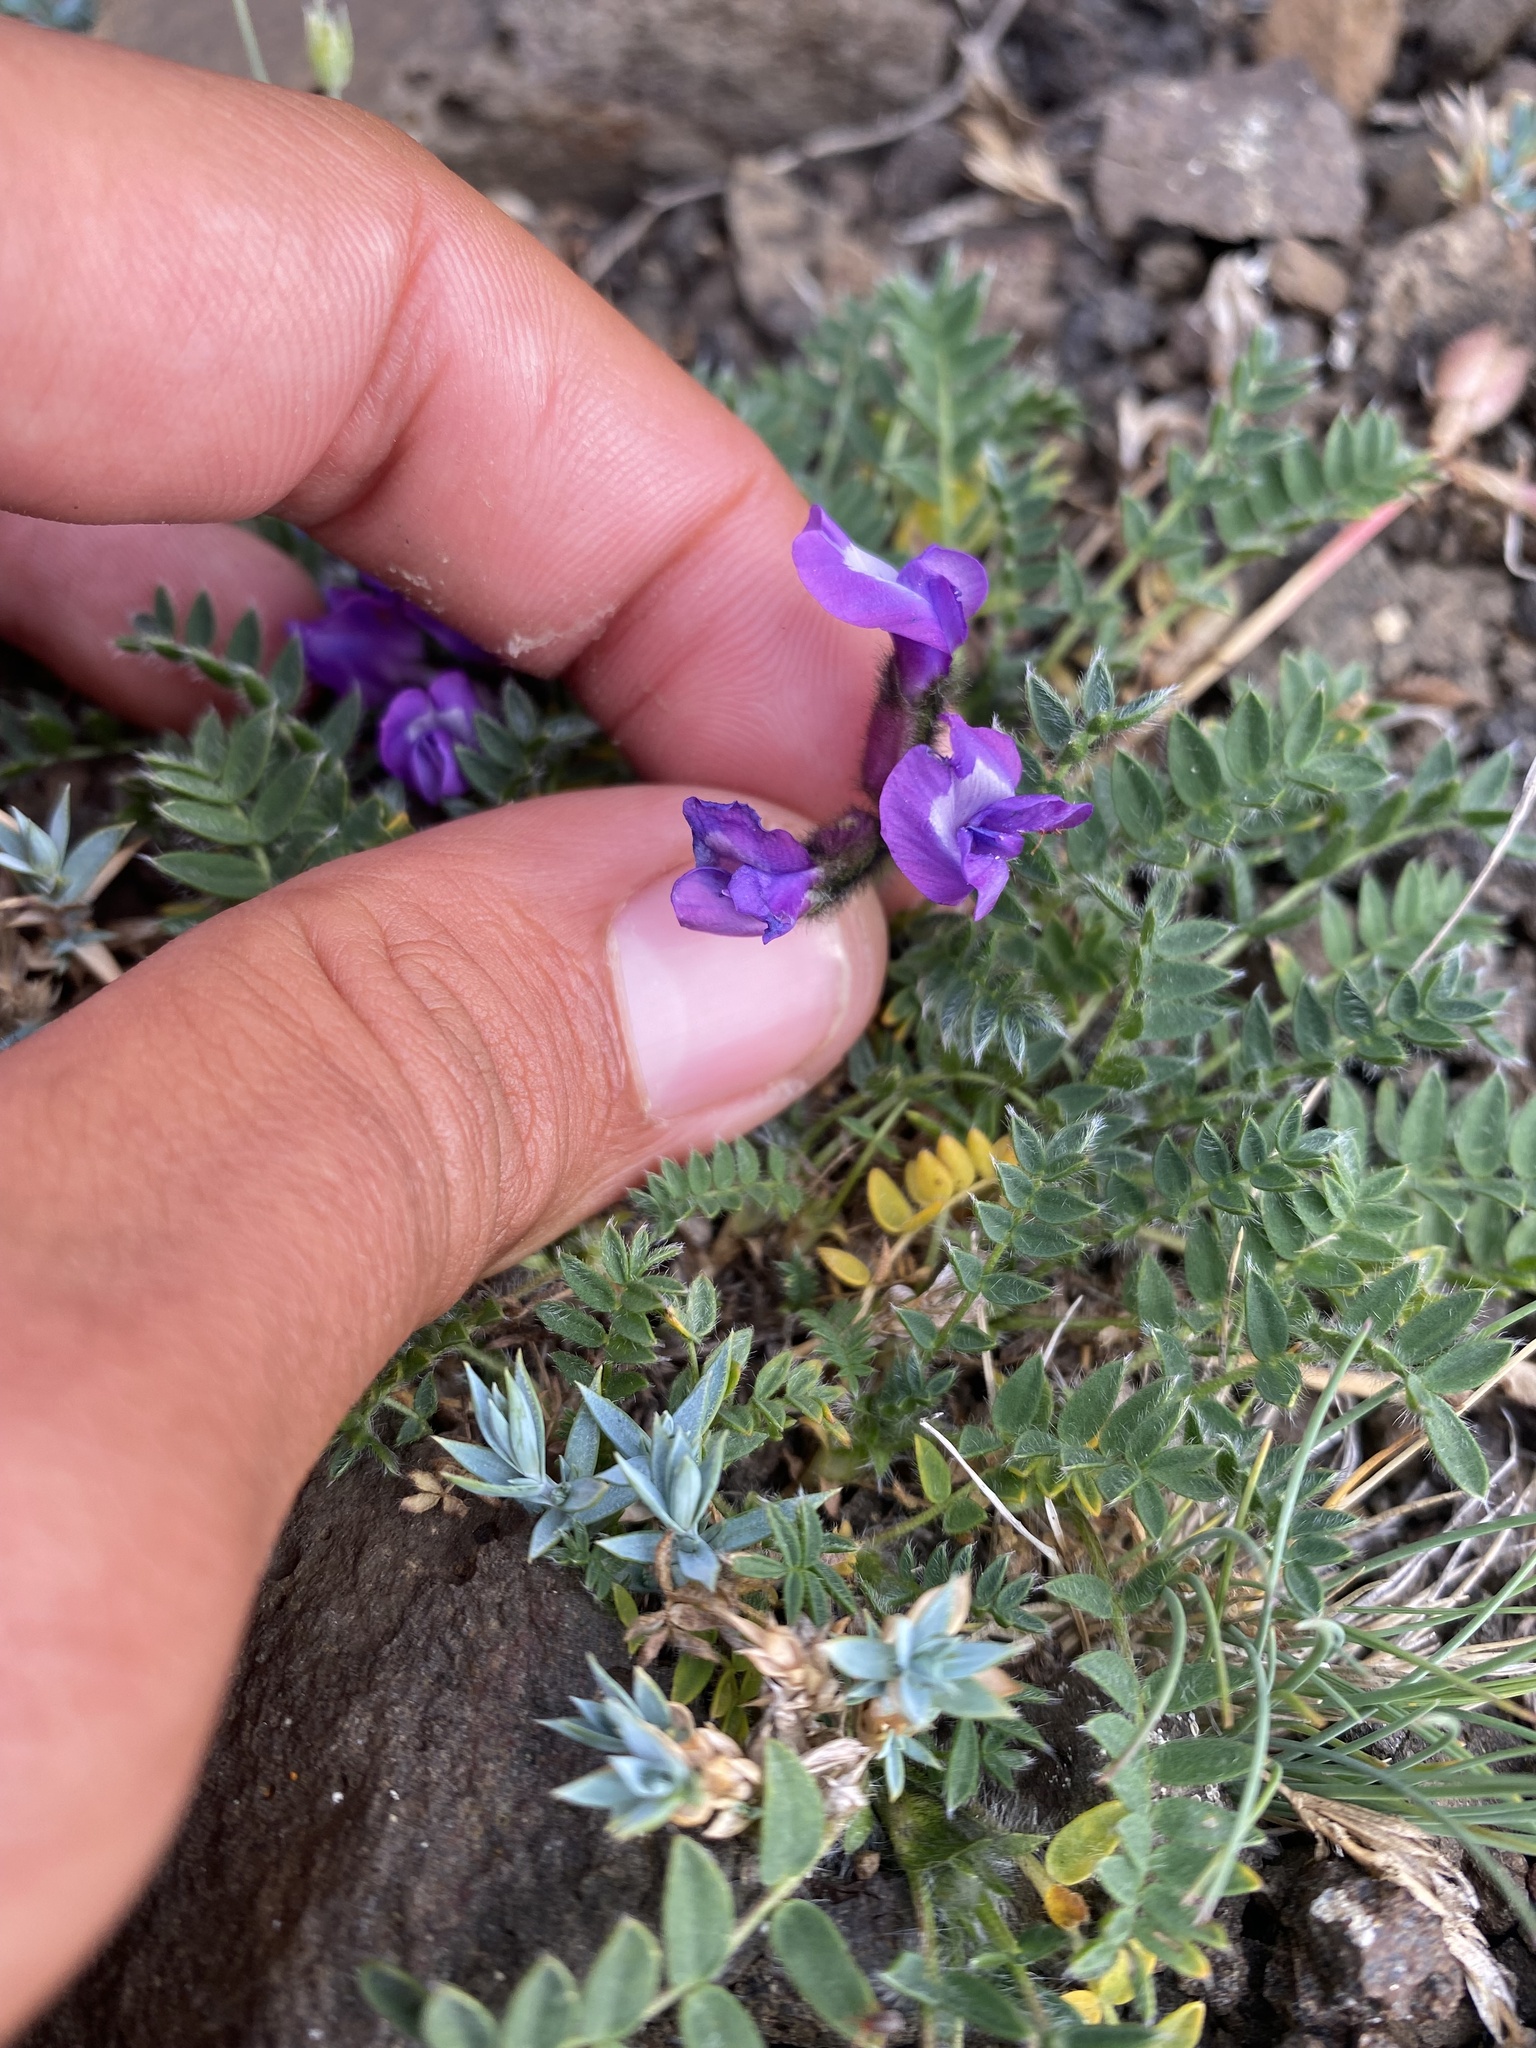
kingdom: Plantae
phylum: Tracheophyta
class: Magnoliopsida
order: Fabales
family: Fabaceae
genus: Oxytropis
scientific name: Oxytropis nigrescens
